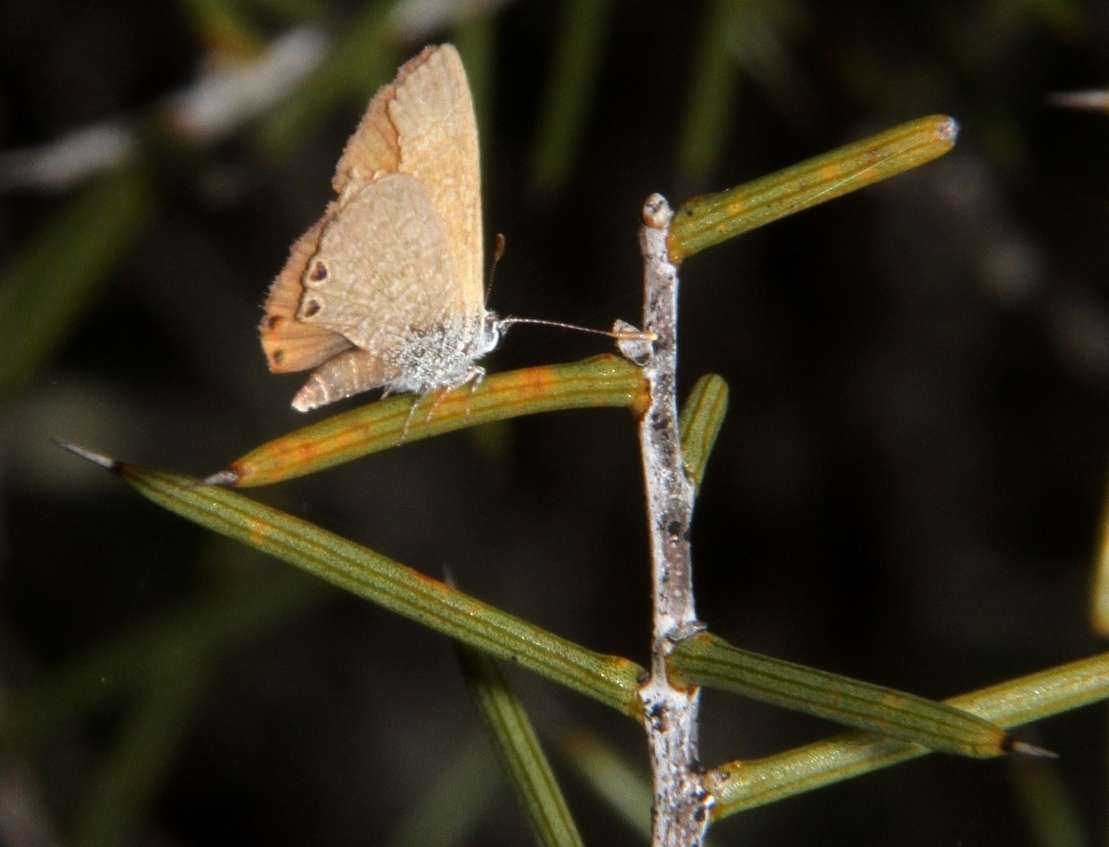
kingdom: Animalia
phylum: Arthropoda
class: Insecta
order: Lepidoptera
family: Lycaenidae
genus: Nacaduba
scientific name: Nacaduba biocellata
